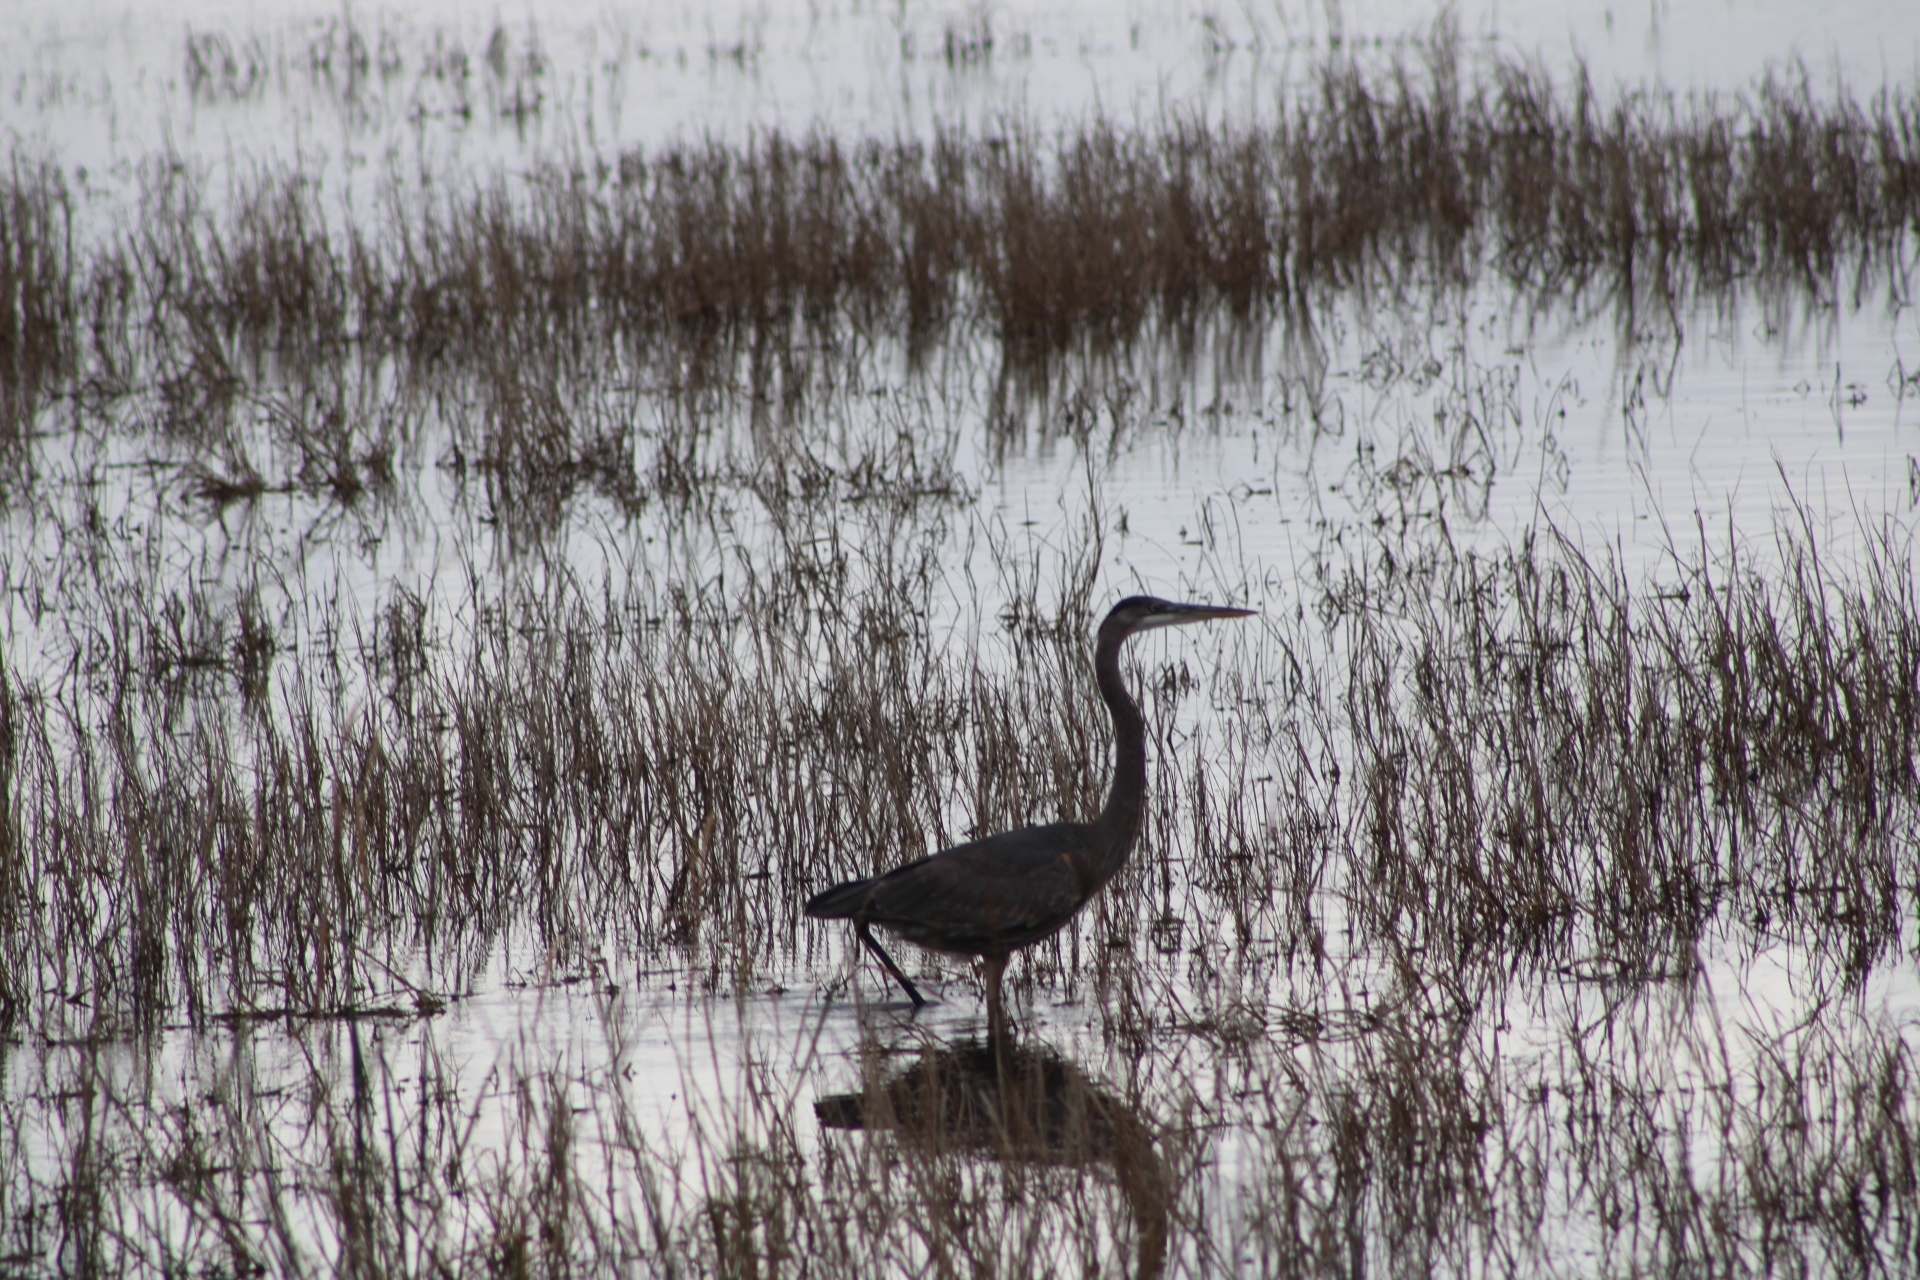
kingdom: Animalia
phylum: Chordata
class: Aves
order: Pelecaniformes
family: Ardeidae
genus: Ardea
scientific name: Ardea herodias
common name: Great blue heron
